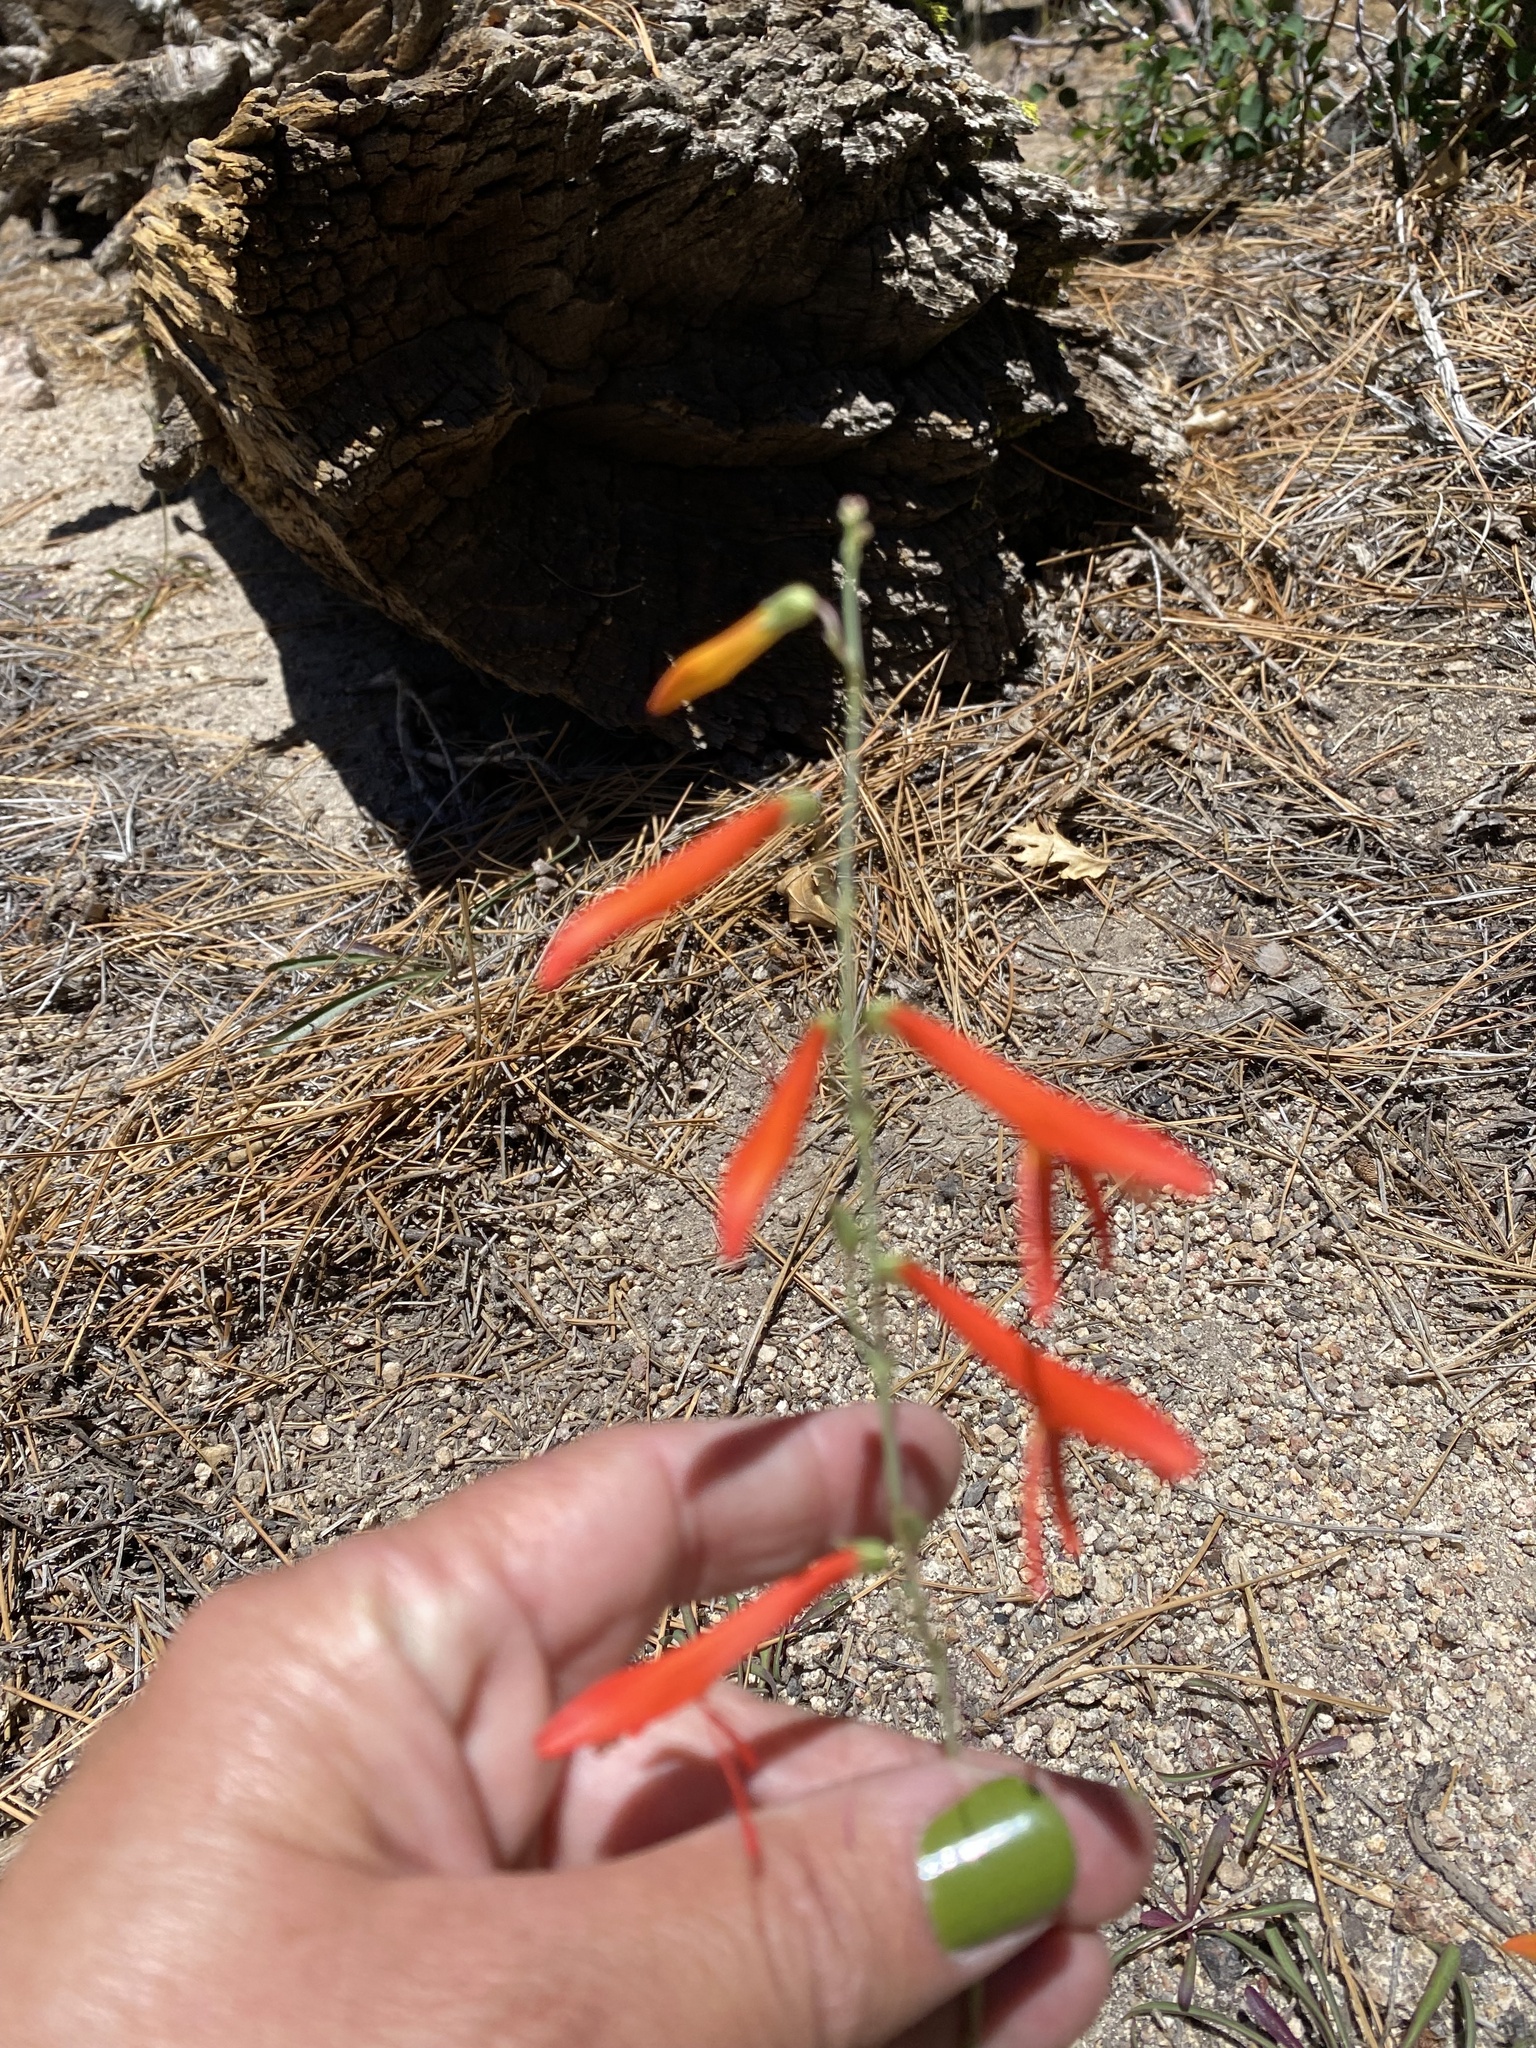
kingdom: Plantae
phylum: Tracheophyta
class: Magnoliopsida
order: Lamiales
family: Plantaginaceae
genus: Penstemon
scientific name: Penstemon labrosus
